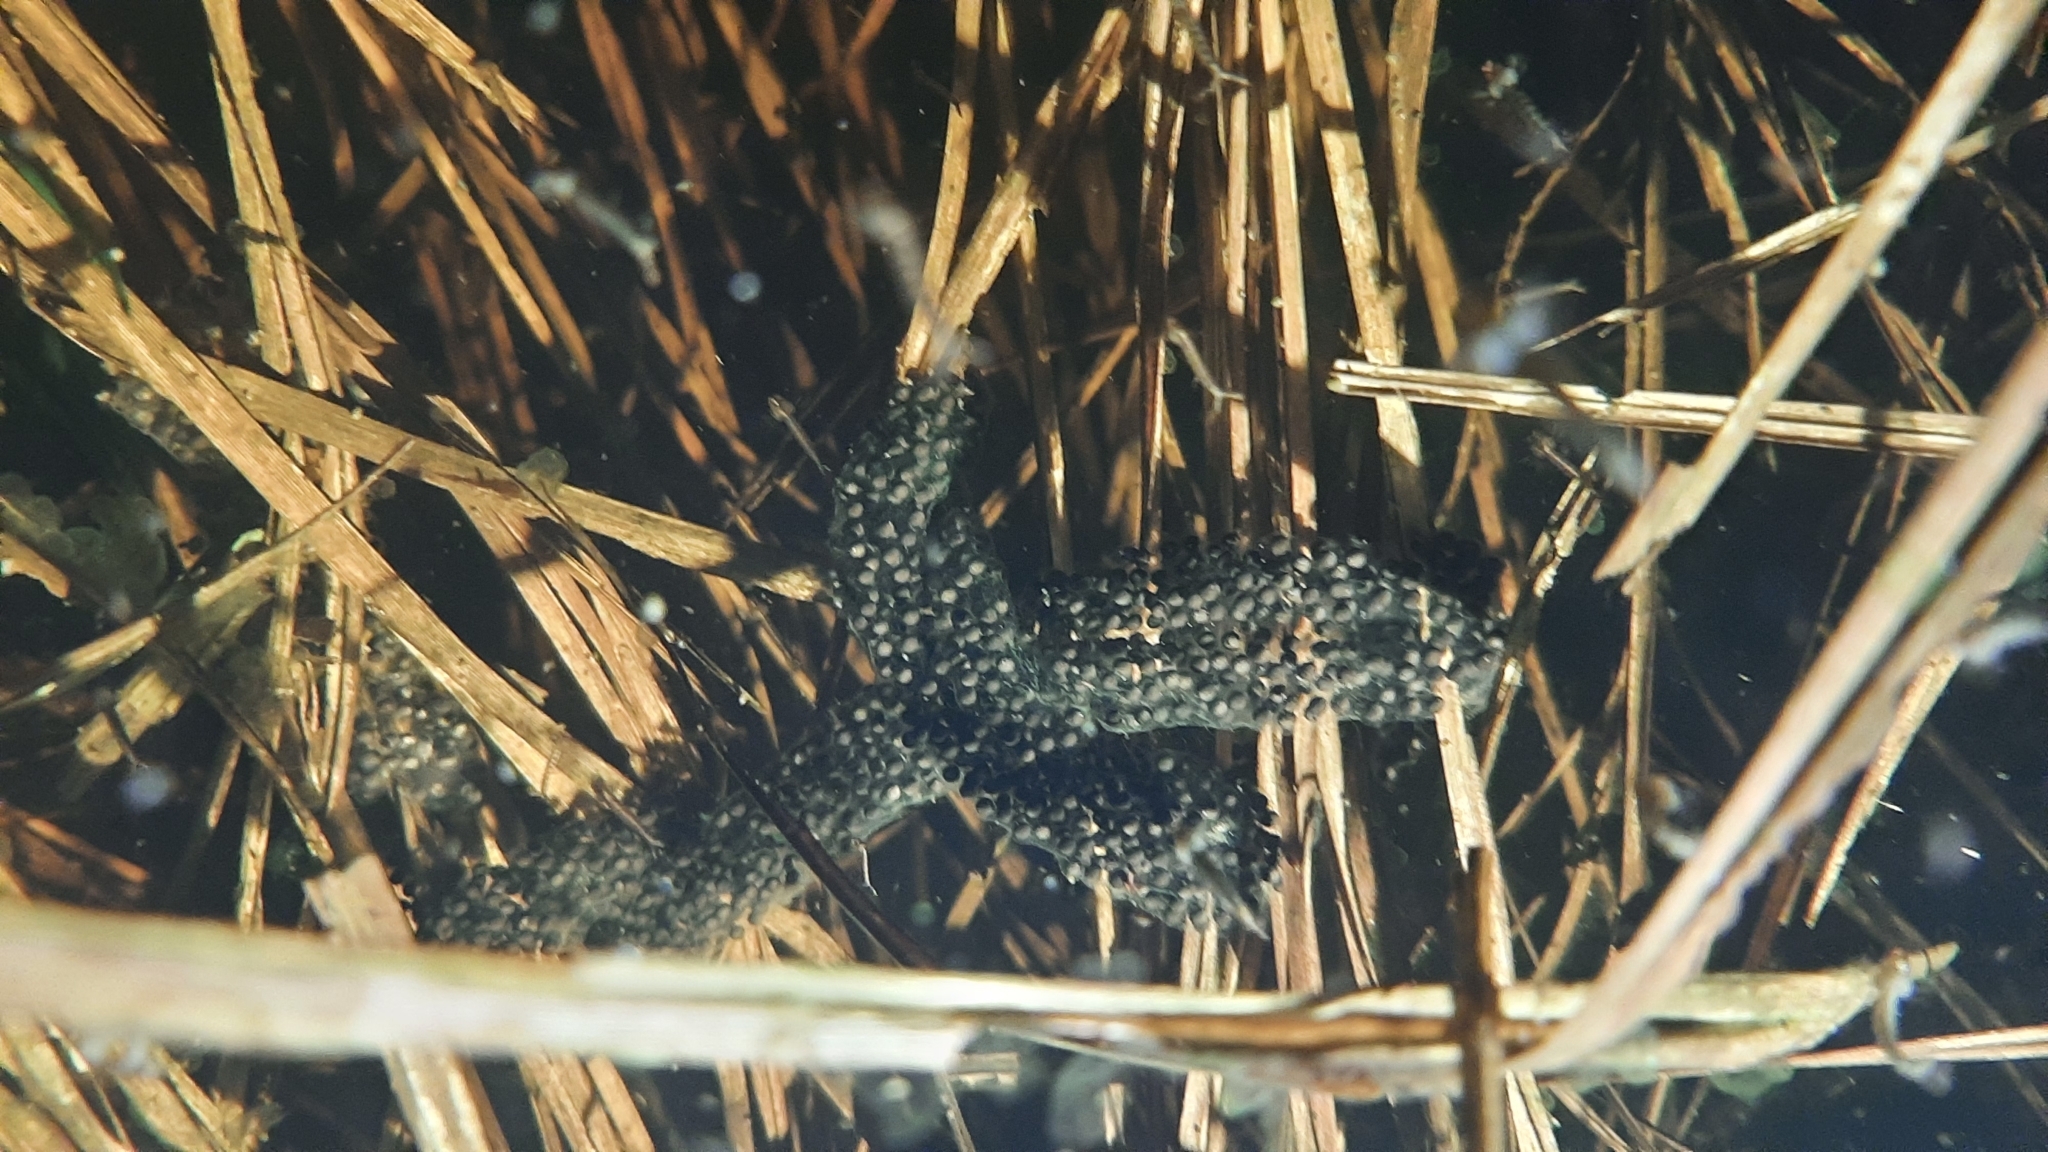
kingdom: Animalia
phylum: Chordata
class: Amphibia
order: Anura
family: Pelobatidae
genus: Pelobates
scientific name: Pelobates fuscus
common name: Common eurasian spadefoot toad
